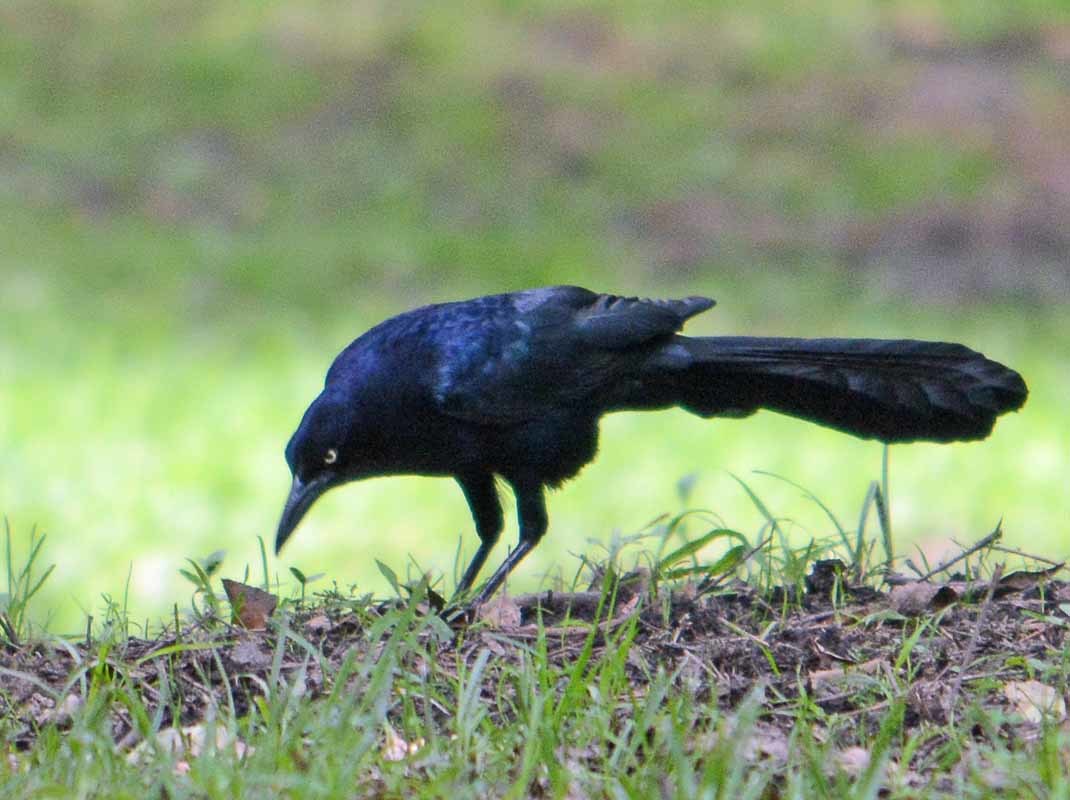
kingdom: Animalia
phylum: Chordata
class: Aves
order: Passeriformes
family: Icteridae
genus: Quiscalus
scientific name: Quiscalus mexicanus
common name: Great-tailed grackle
